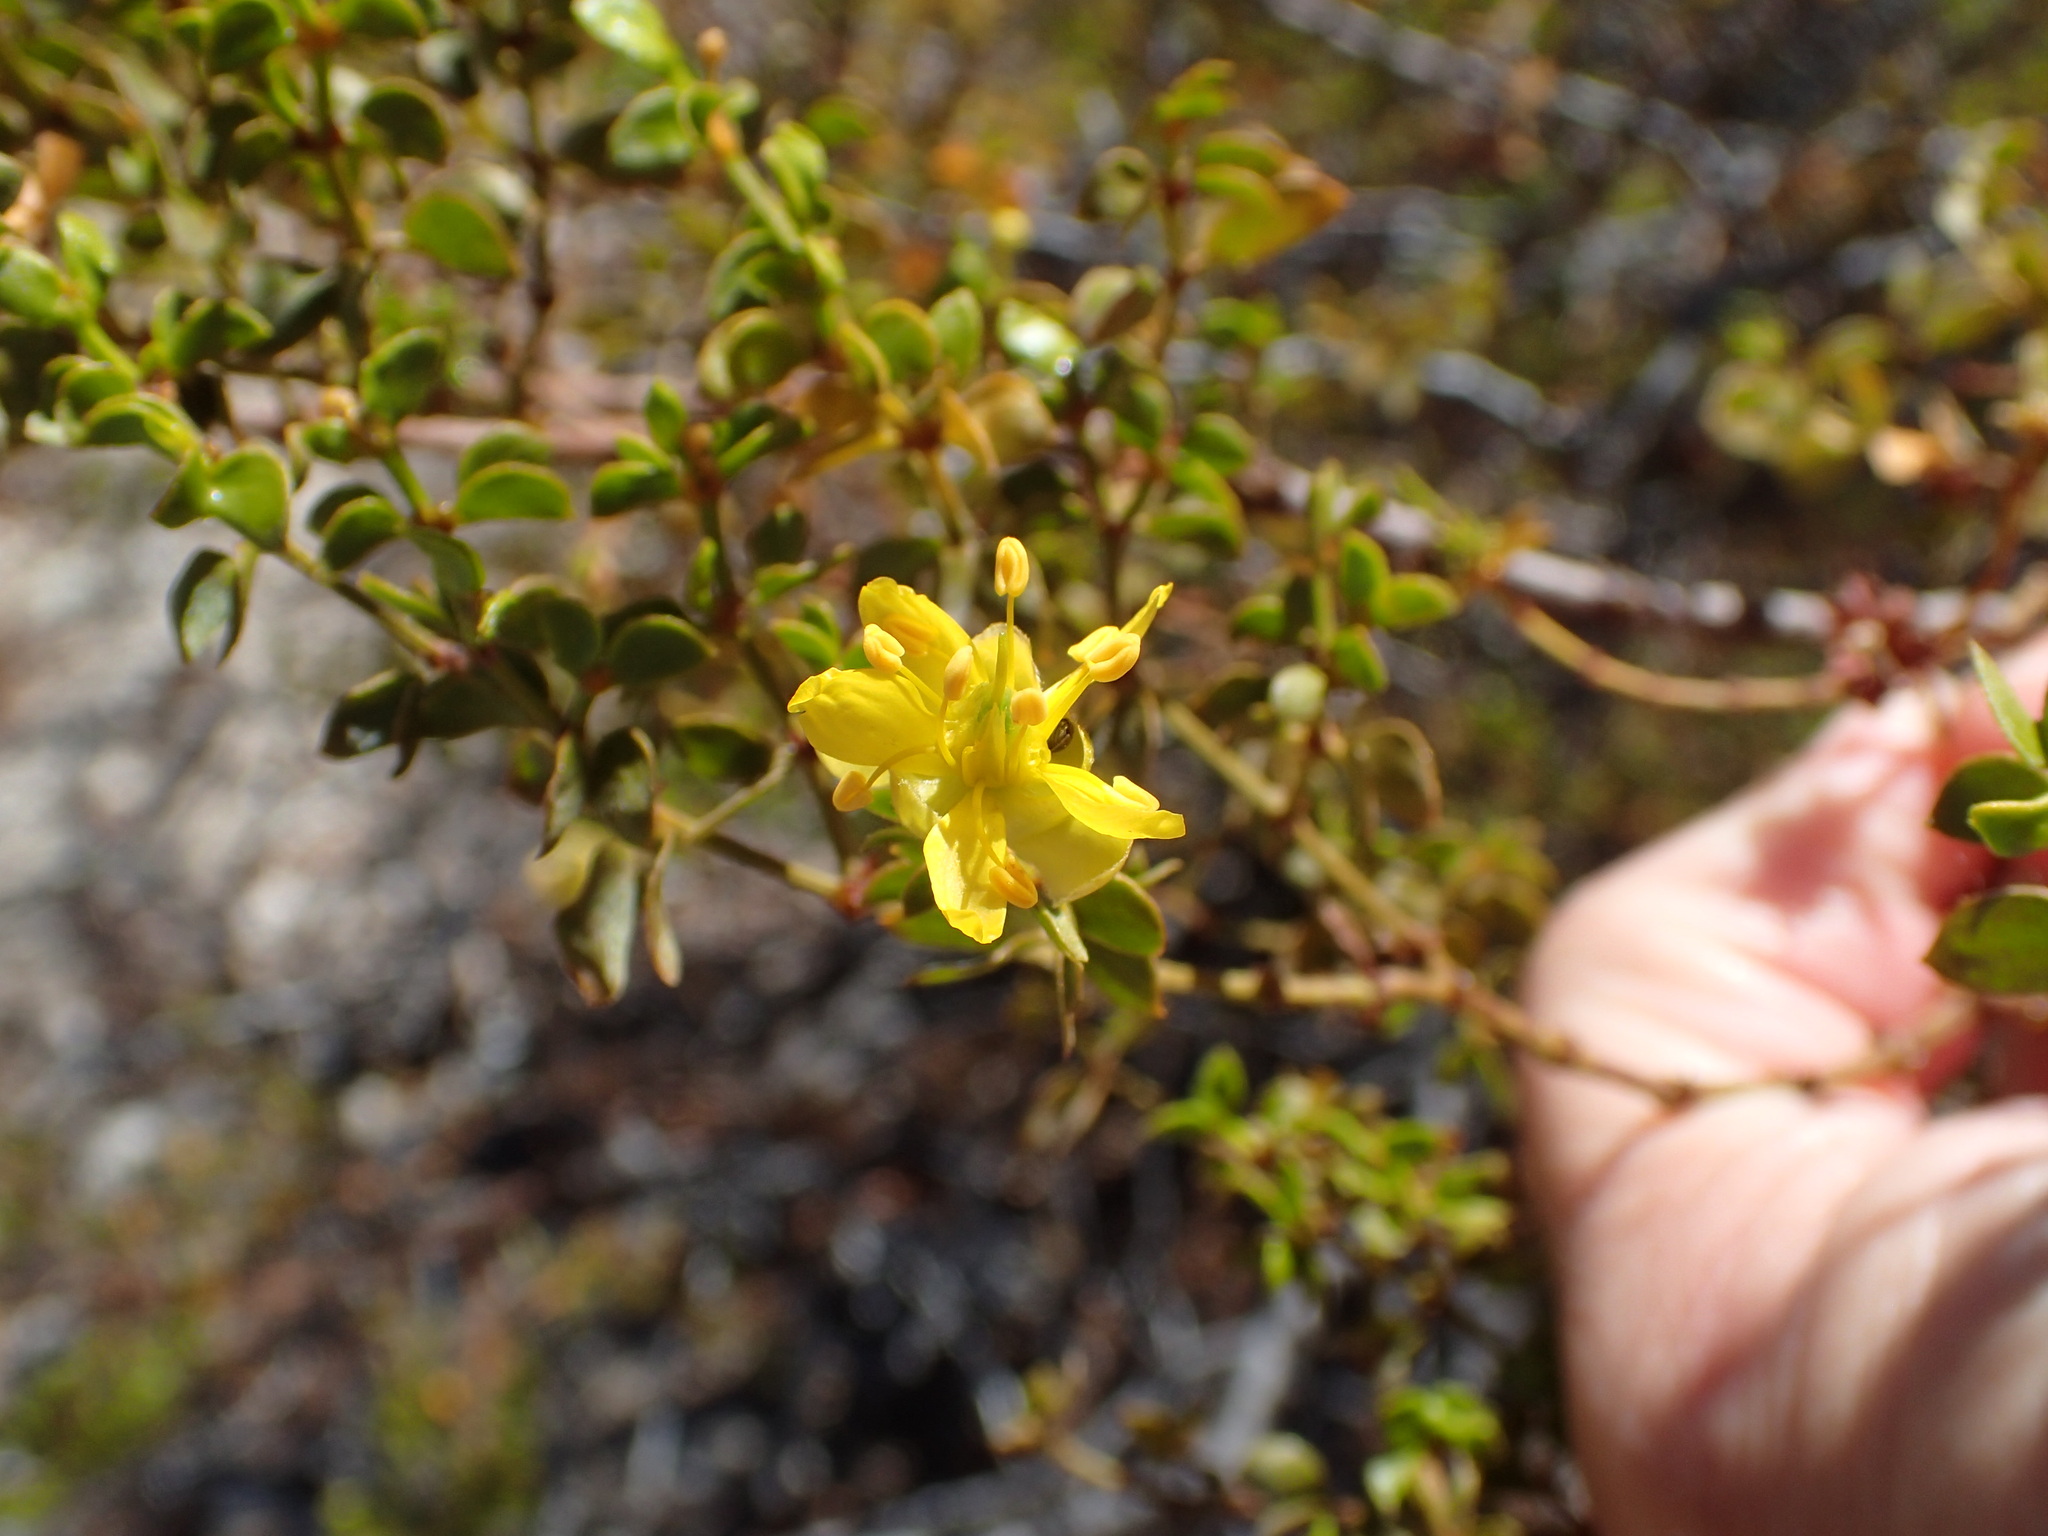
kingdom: Plantae
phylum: Tracheophyta
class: Magnoliopsida
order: Zygophyllales
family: Zygophyllaceae
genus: Larrea
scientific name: Larrea tridentata
